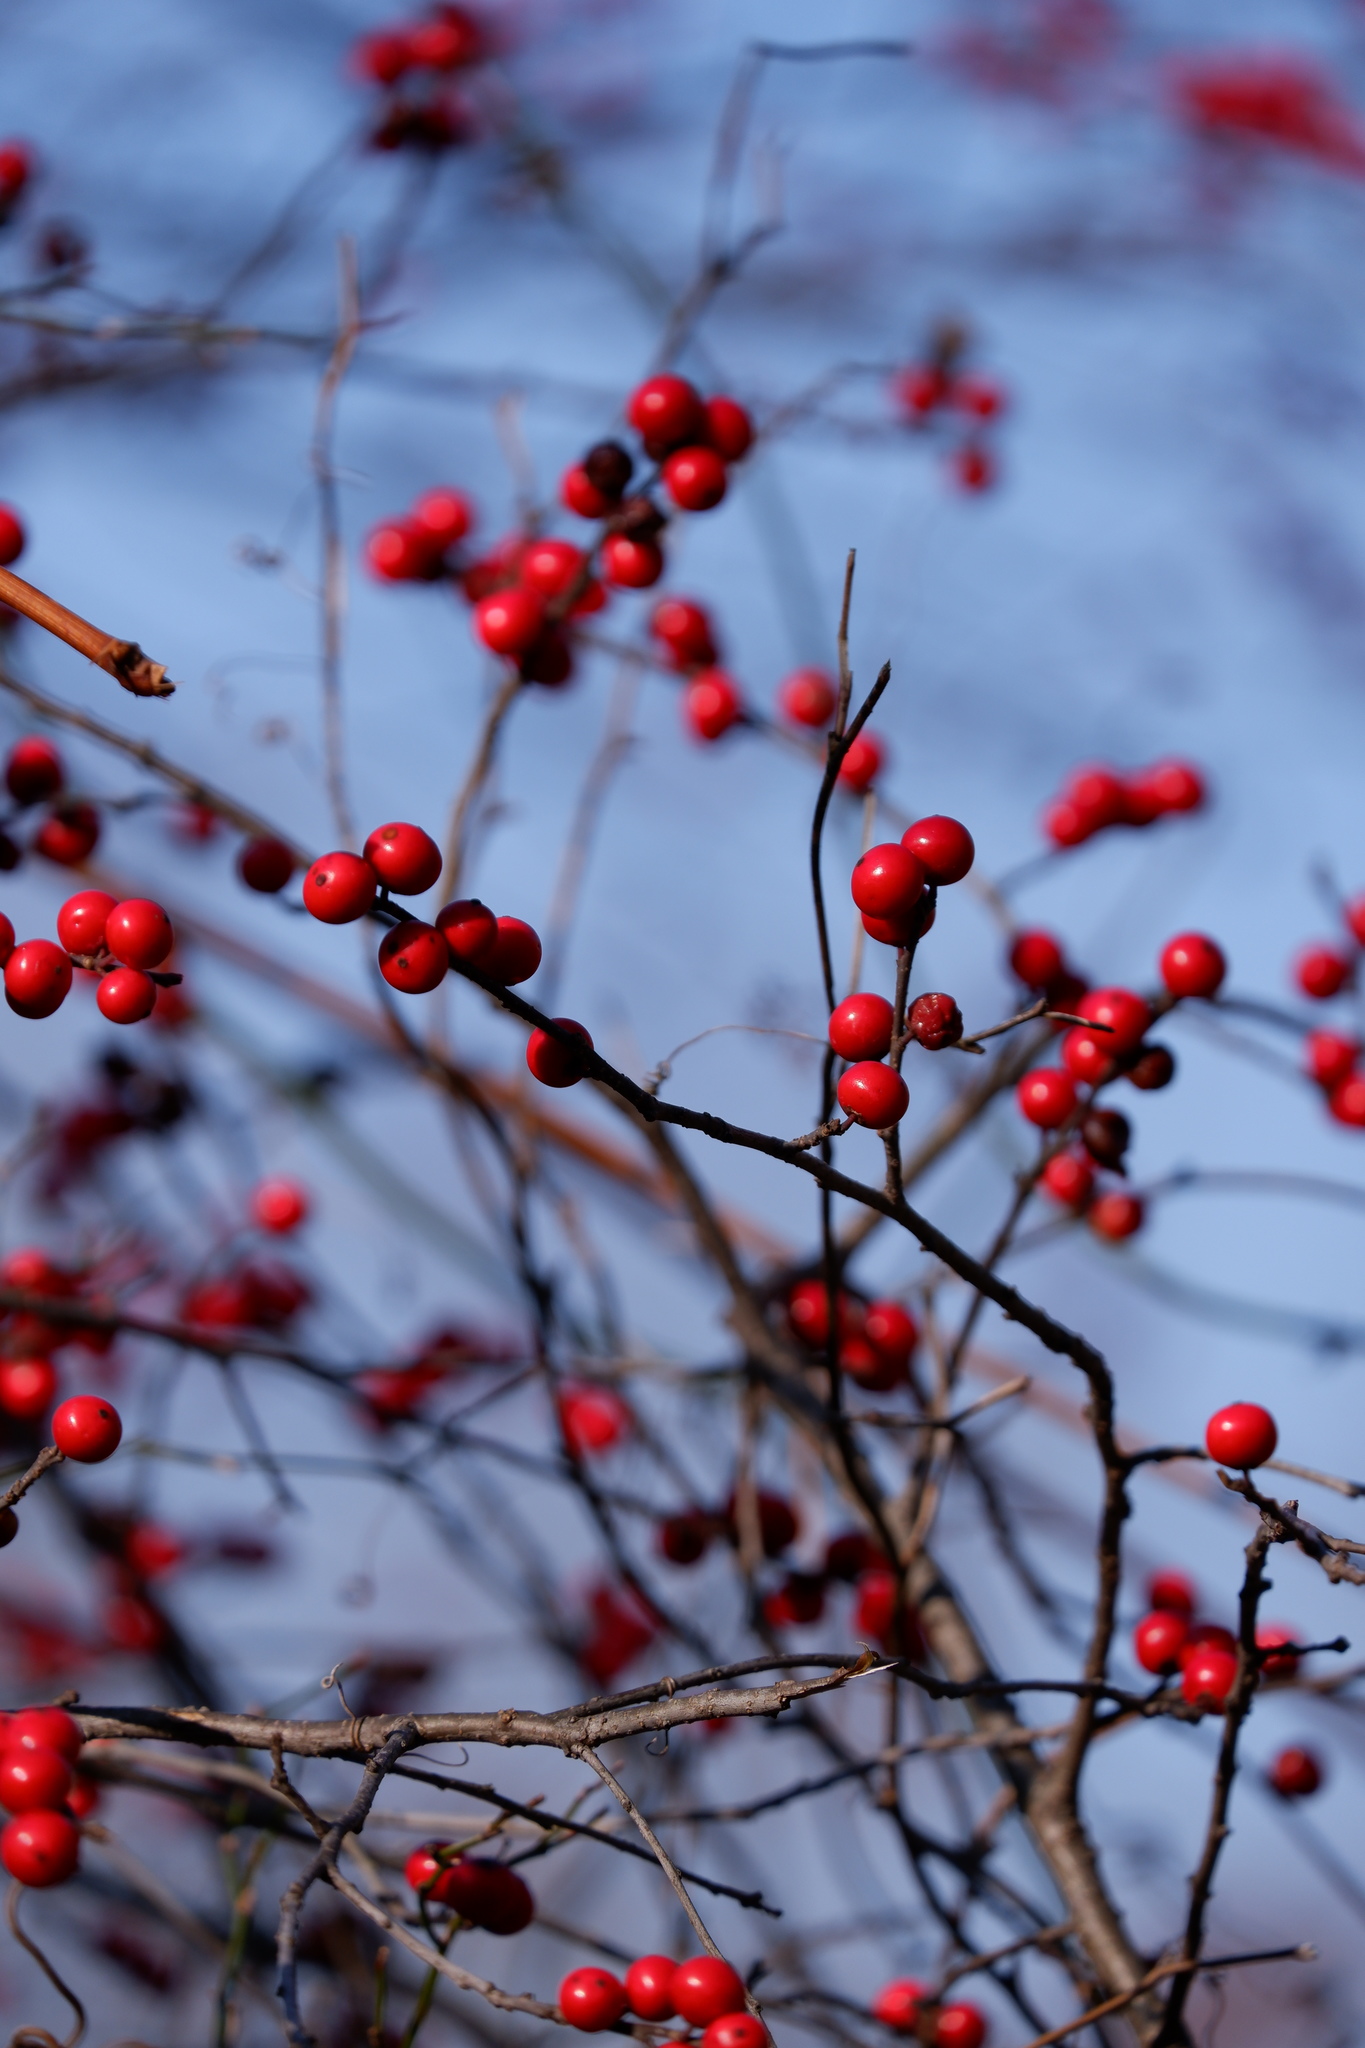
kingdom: Plantae
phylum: Tracheophyta
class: Magnoliopsida
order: Aquifoliales
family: Aquifoliaceae
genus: Ilex
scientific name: Ilex verticillata
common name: Virginia winterberry
